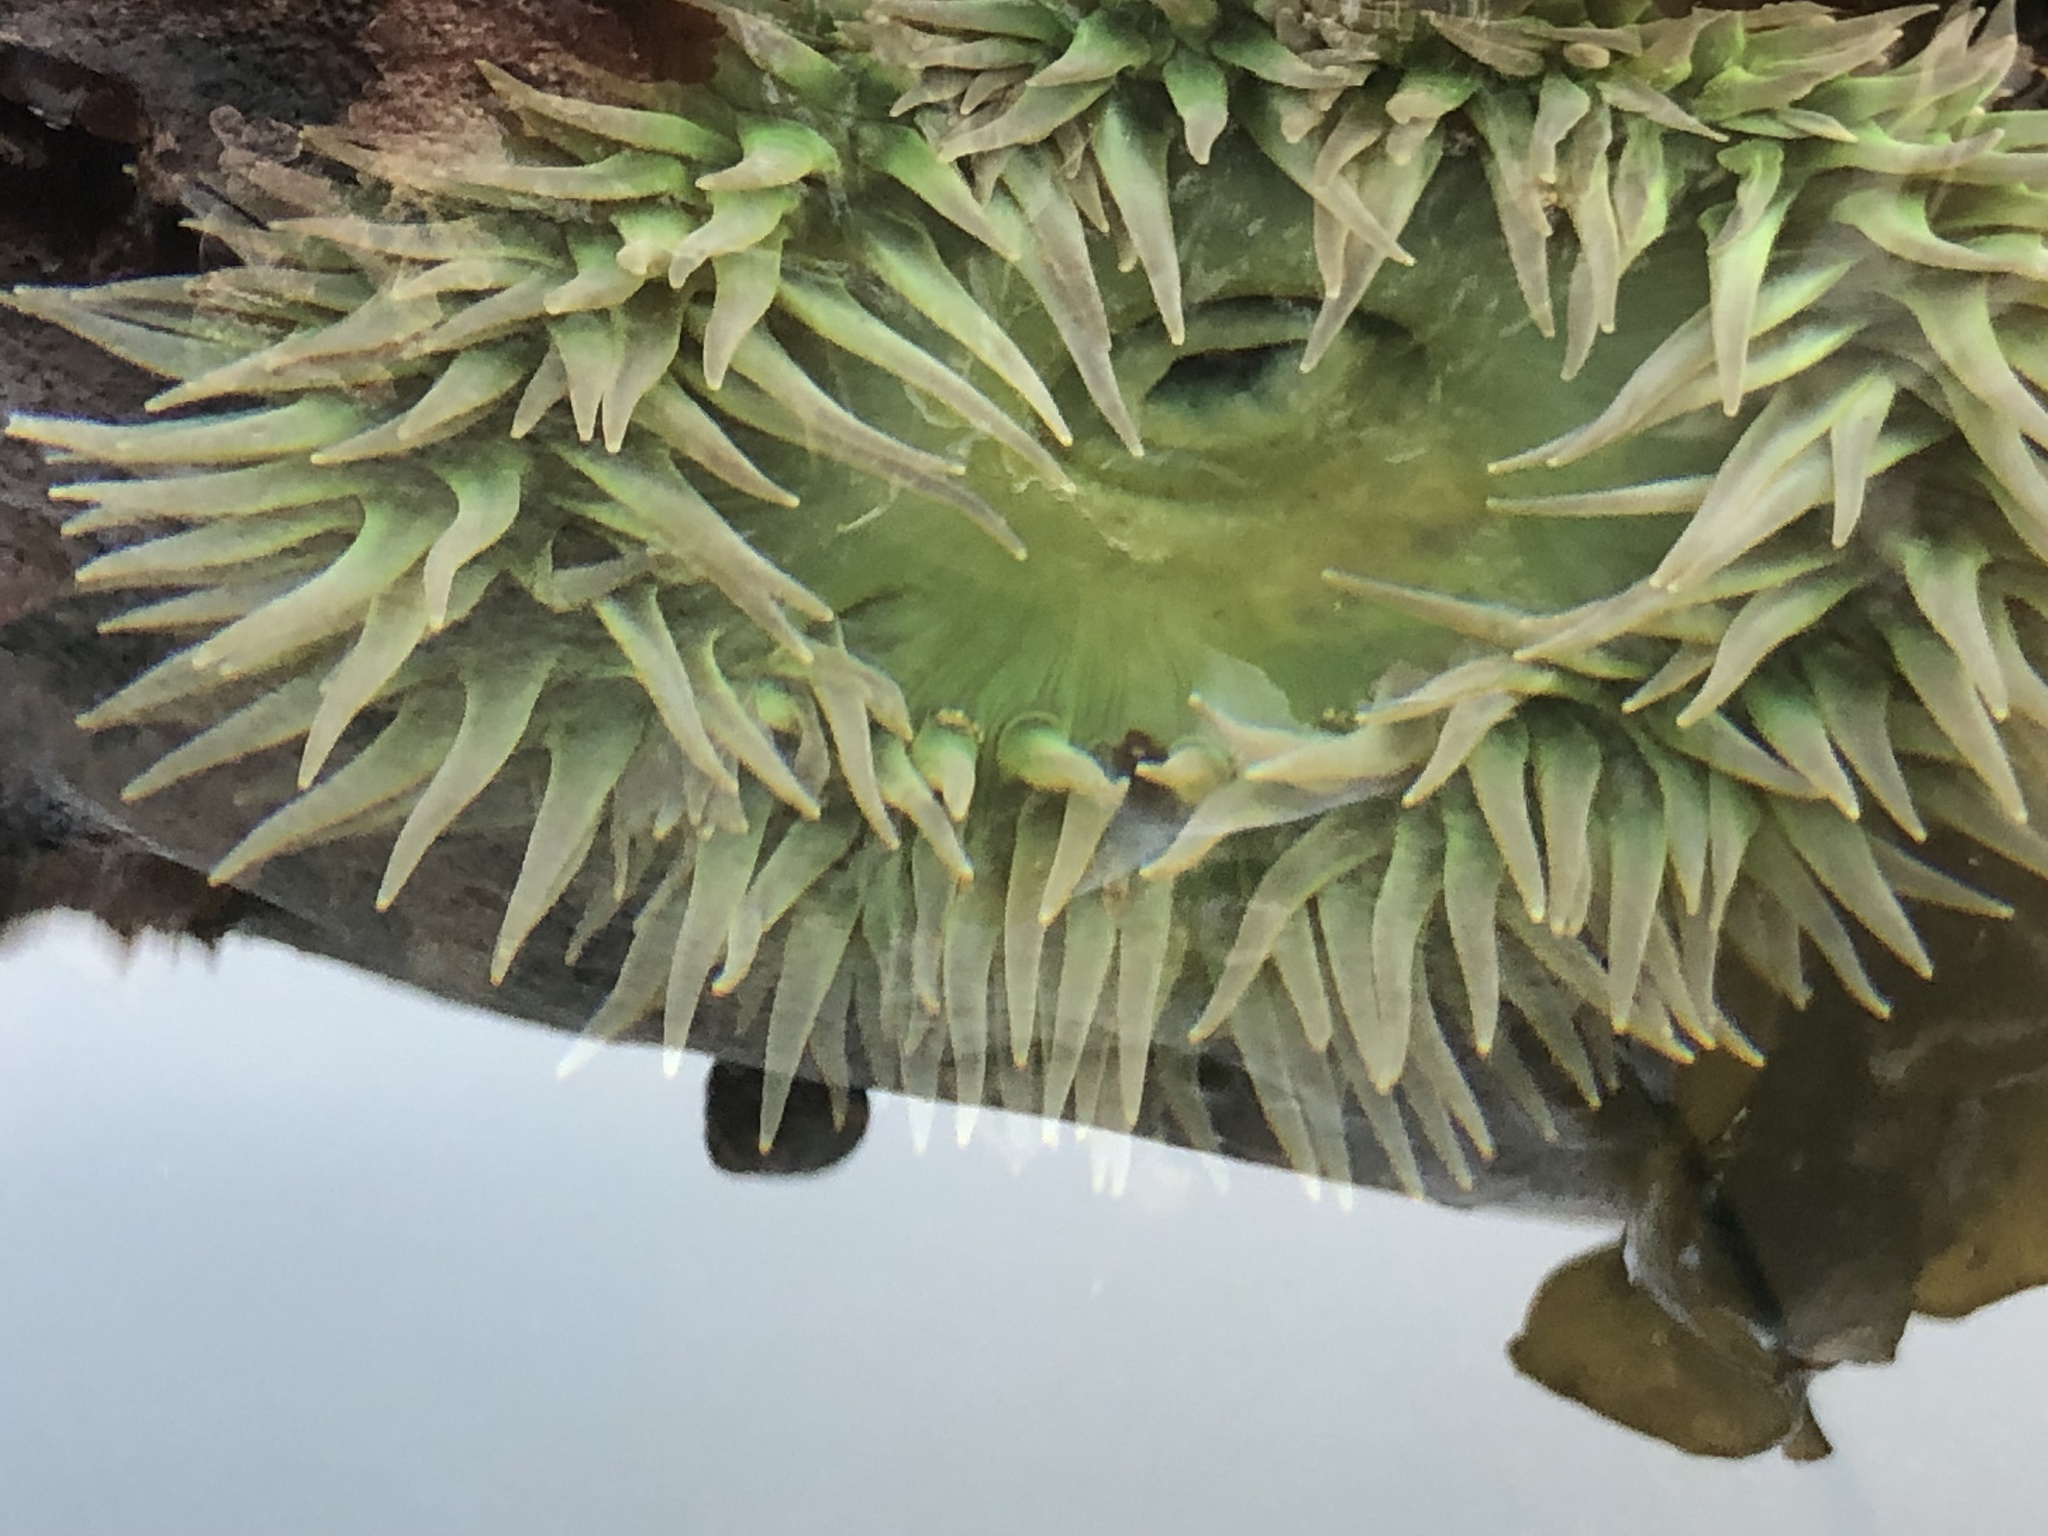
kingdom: Animalia
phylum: Cnidaria
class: Anthozoa
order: Actiniaria
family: Actiniidae
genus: Anthopleura
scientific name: Anthopleura xanthogrammica
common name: Giant green anemone
